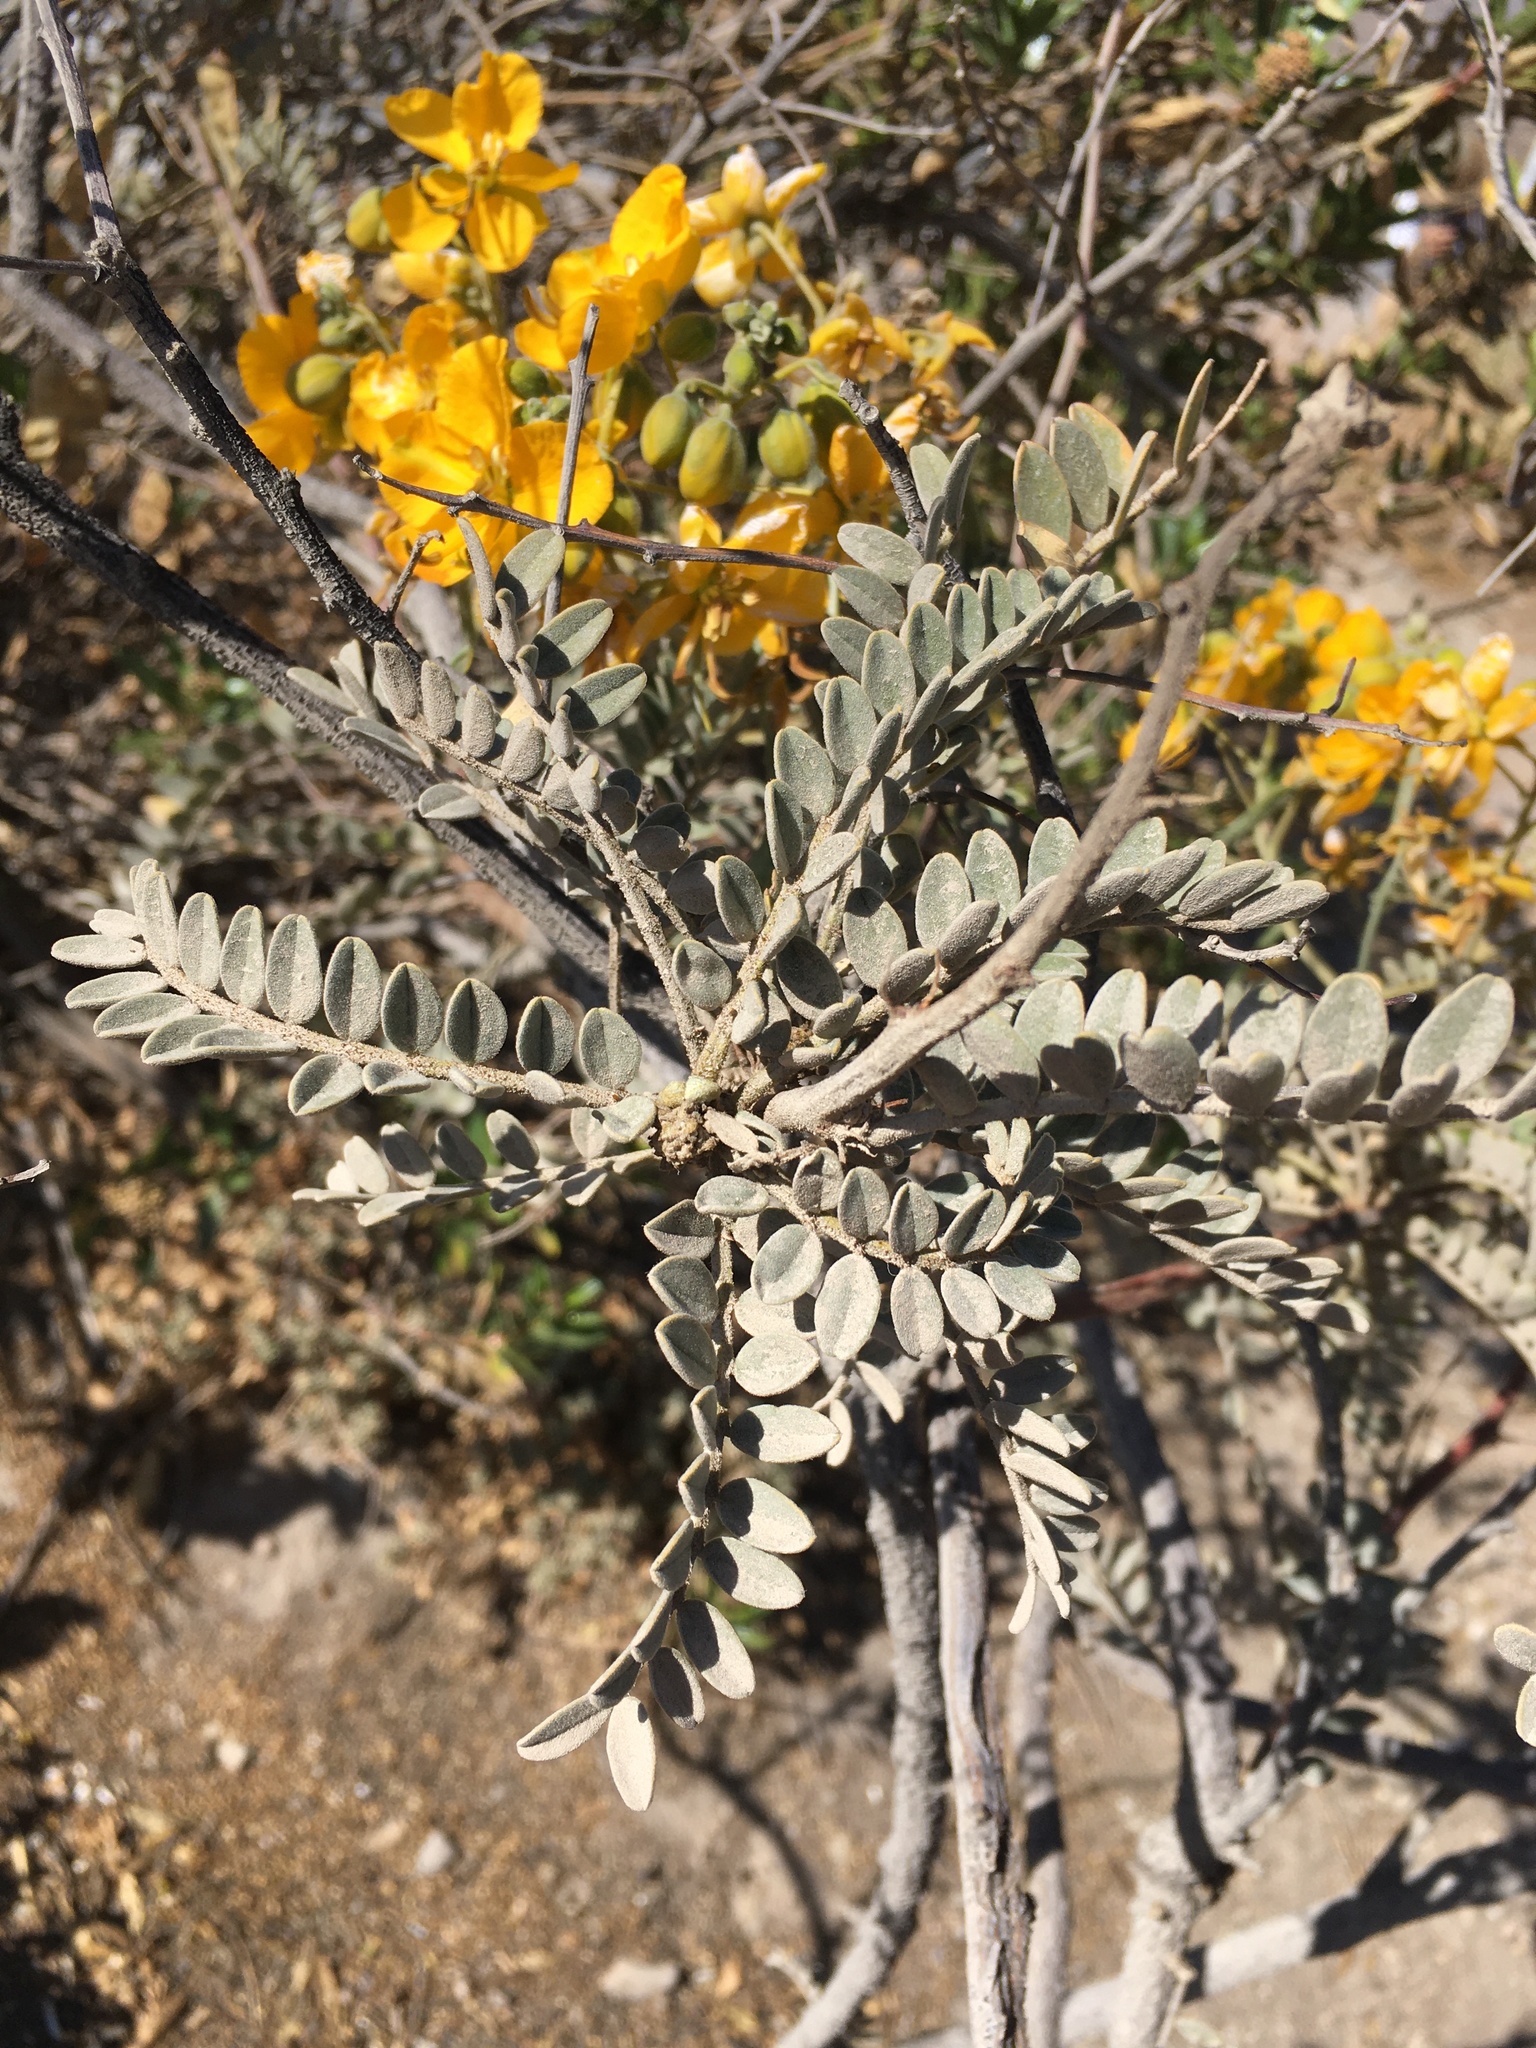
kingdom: Plantae
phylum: Tracheophyta
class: Magnoliopsida
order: Fabales
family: Fabaceae
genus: Senna
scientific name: Senna birostris
